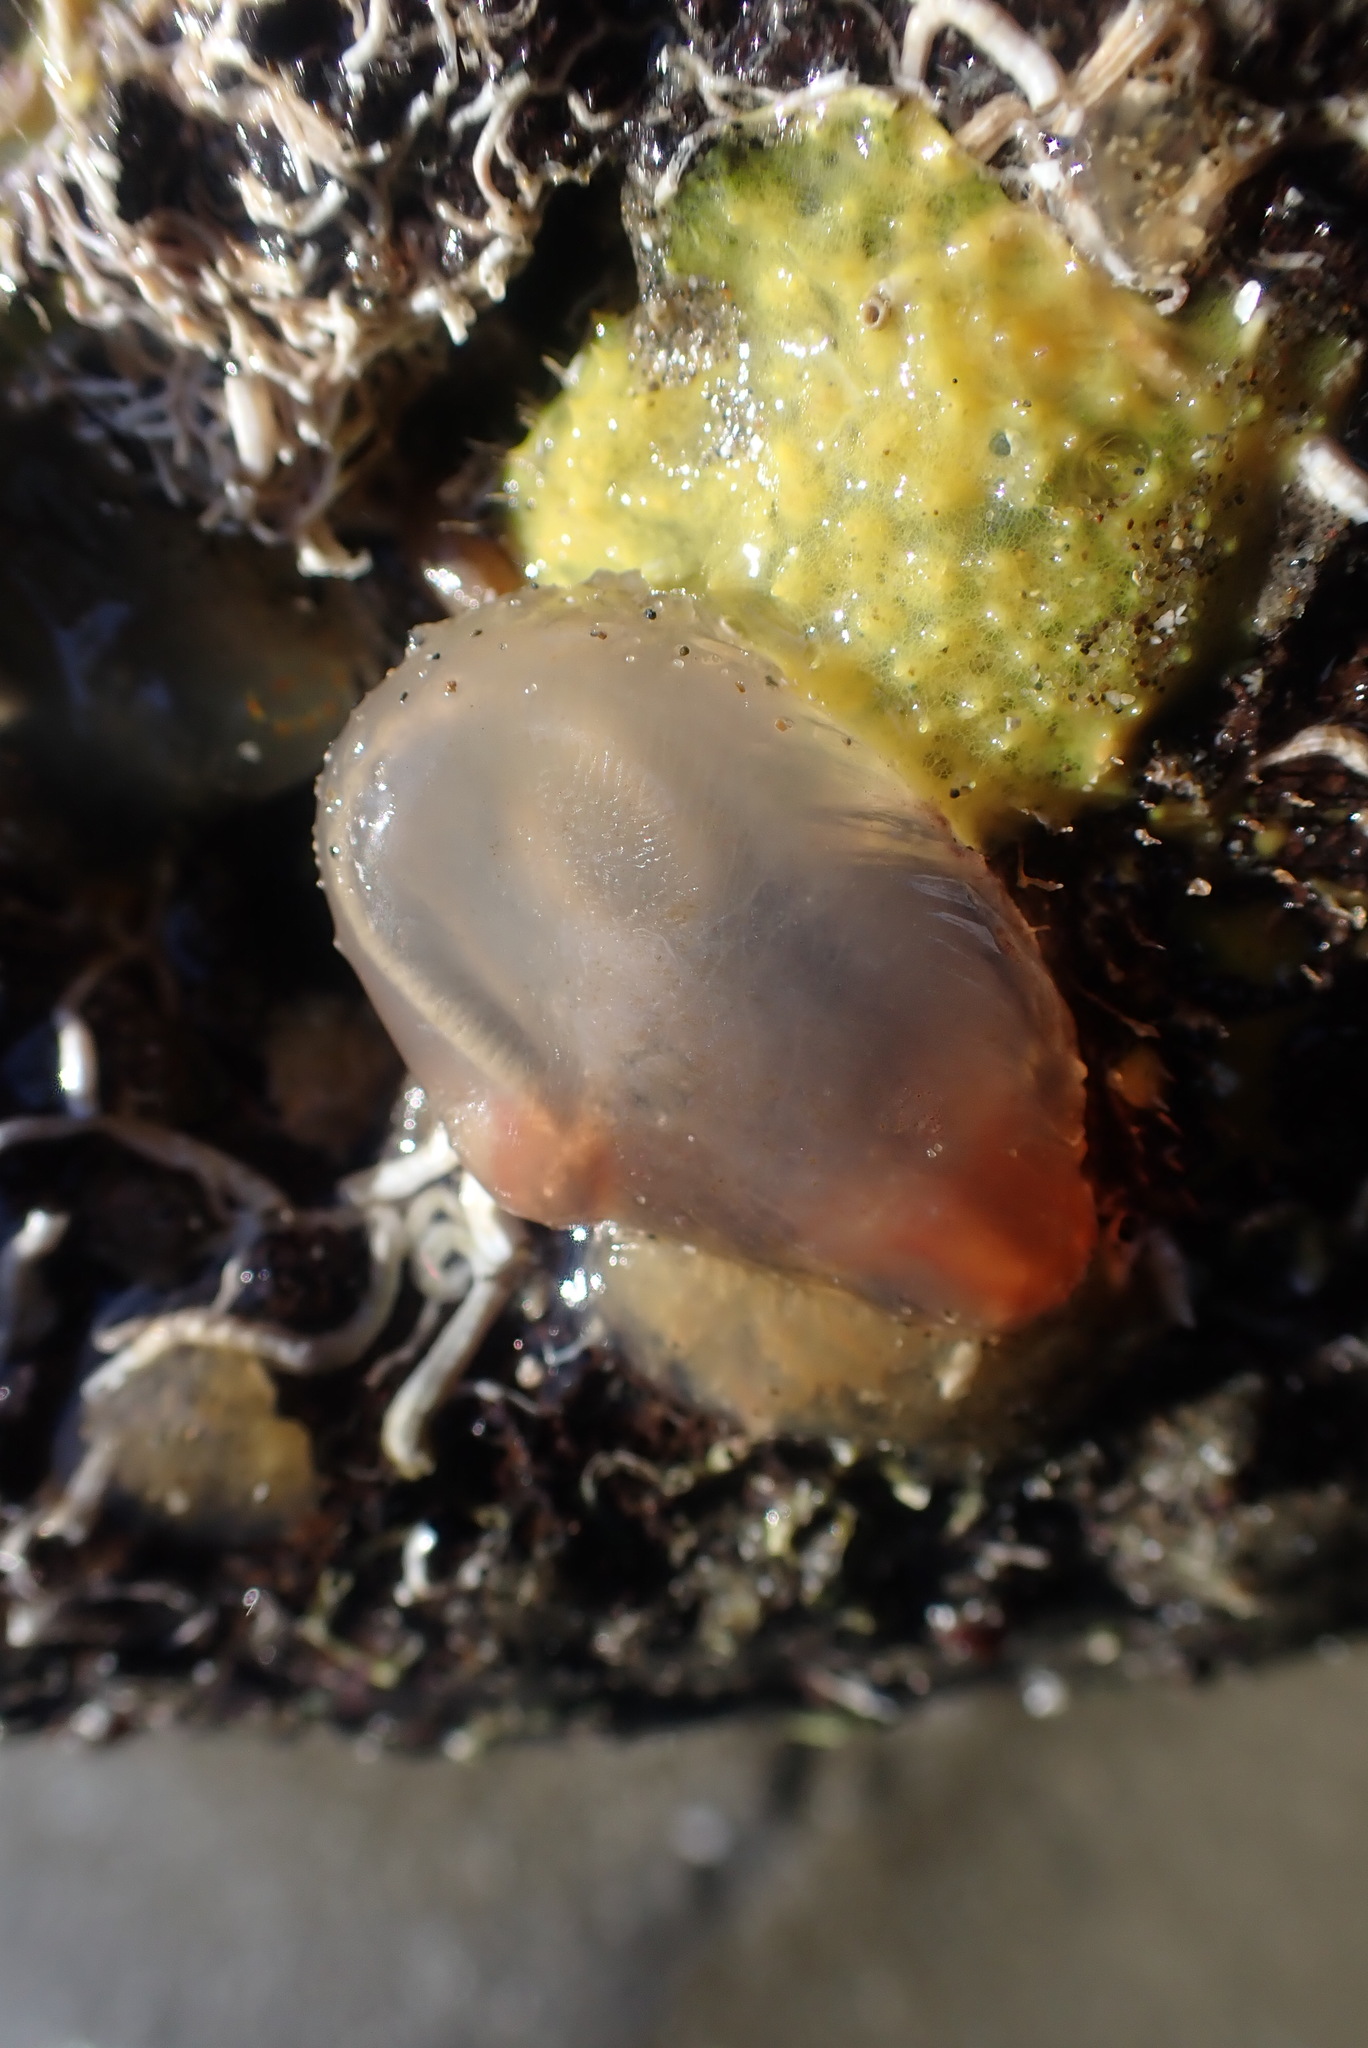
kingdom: Animalia
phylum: Chordata
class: Ascidiacea
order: Phlebobranchia
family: Corellidae
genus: Corella
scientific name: Corella eumyota
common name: Orange-tipped sea squirt
